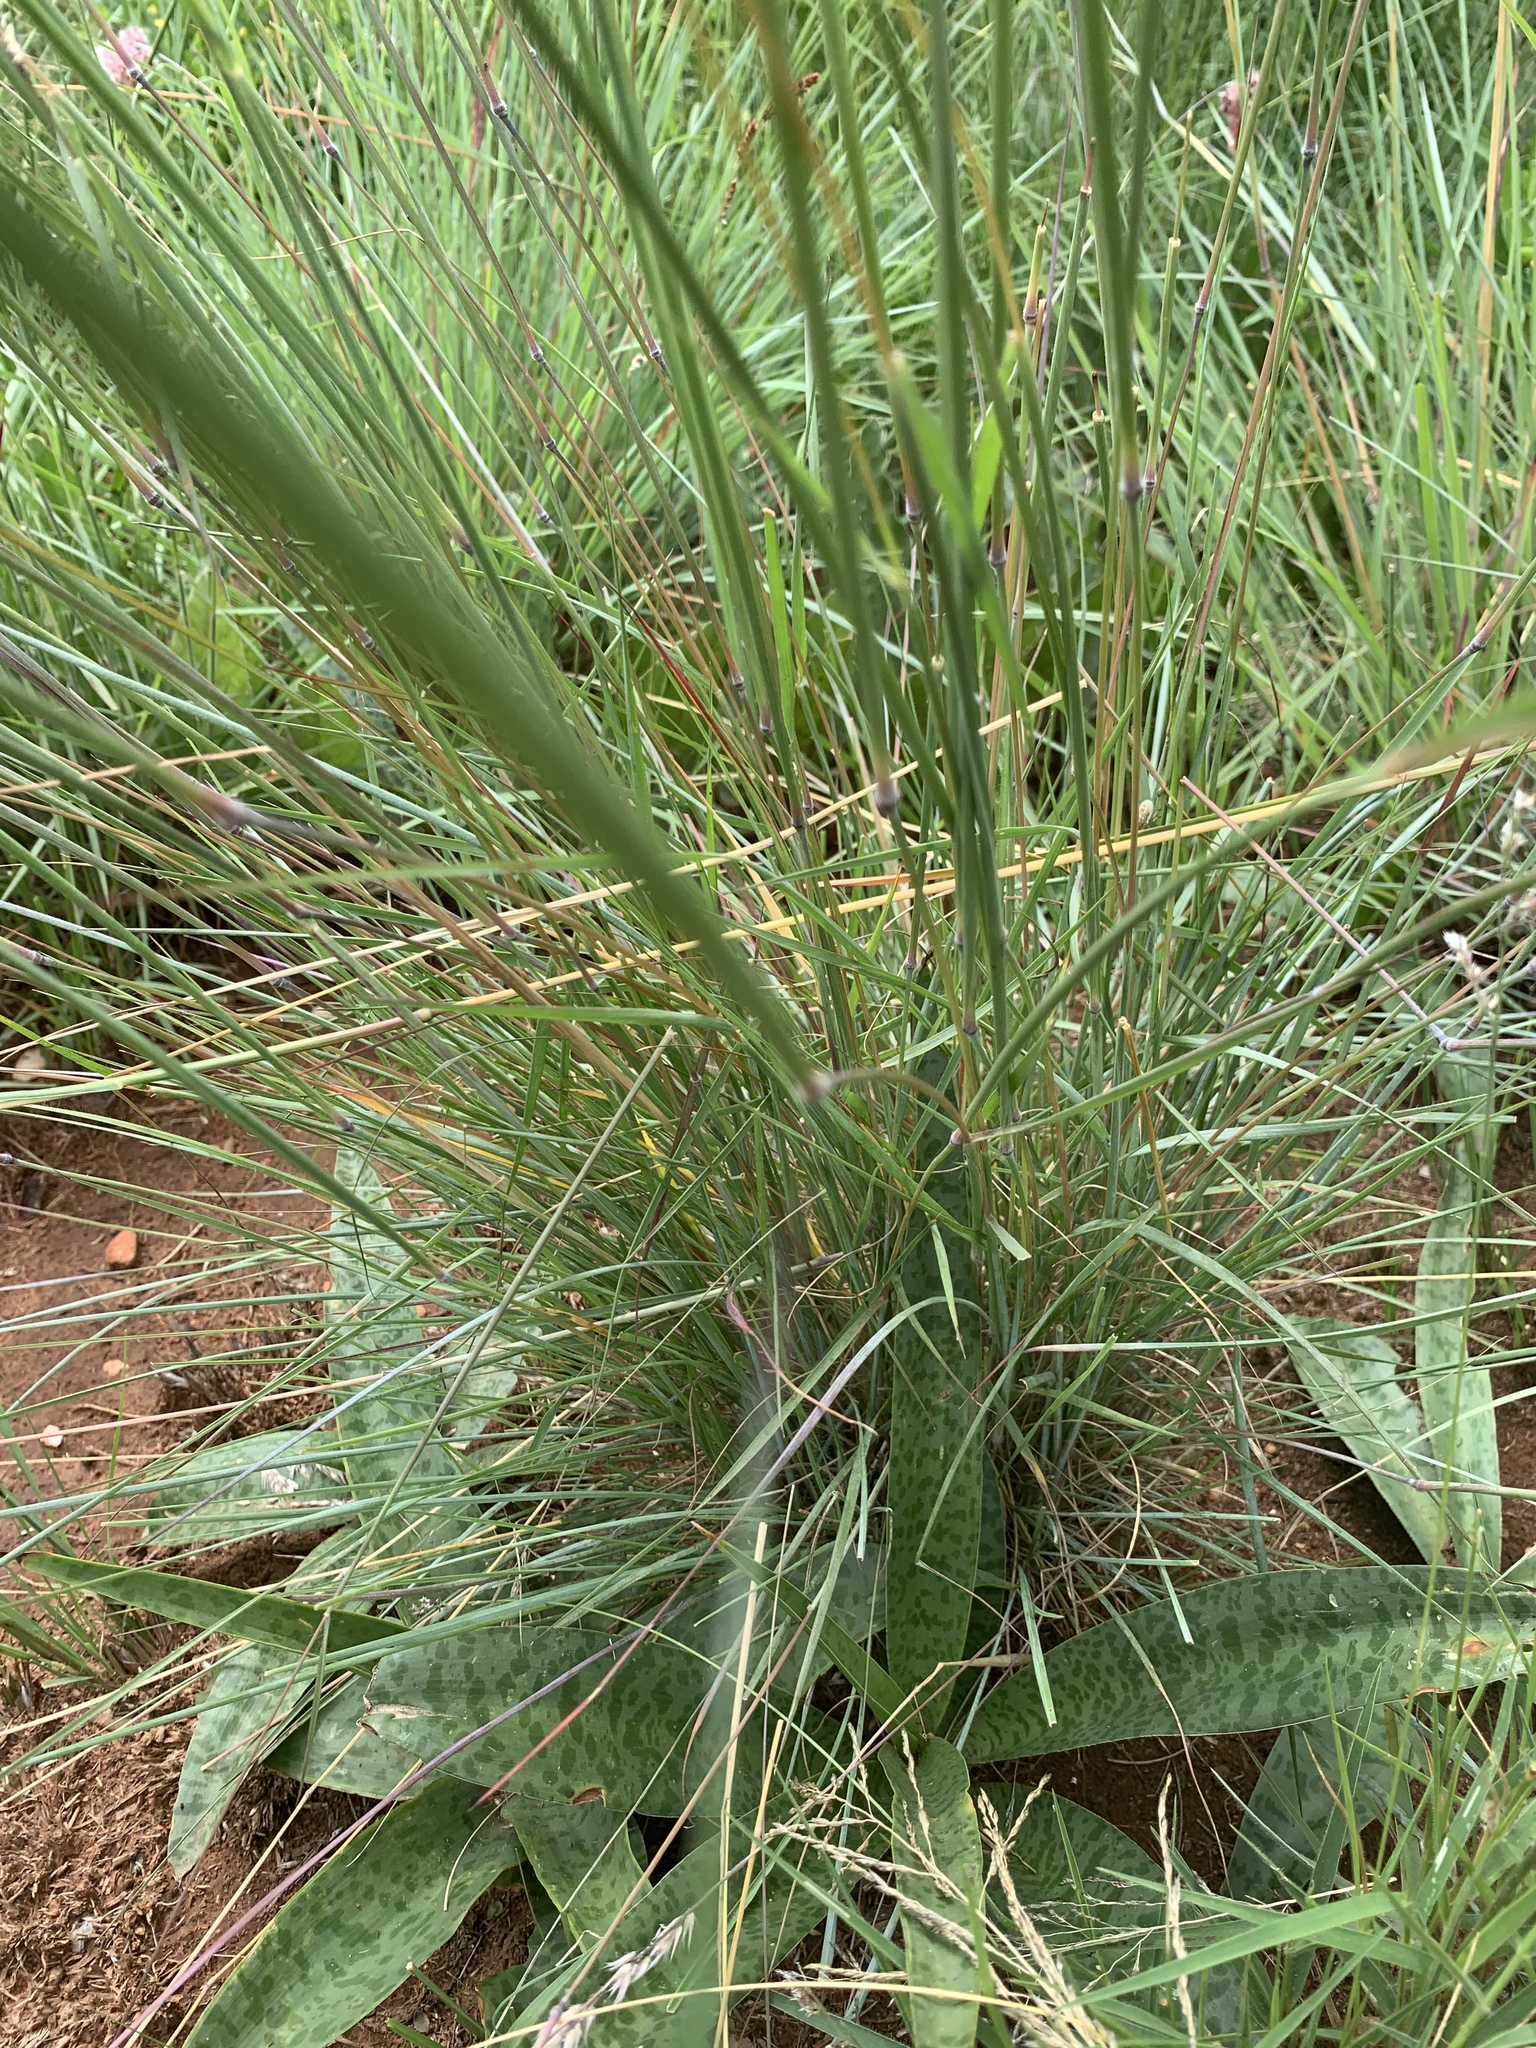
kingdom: Plantae
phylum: Tracheophyta
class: Liliopsida
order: Poales
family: Poaceae
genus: Melinis
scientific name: Melinis nerviglumis
